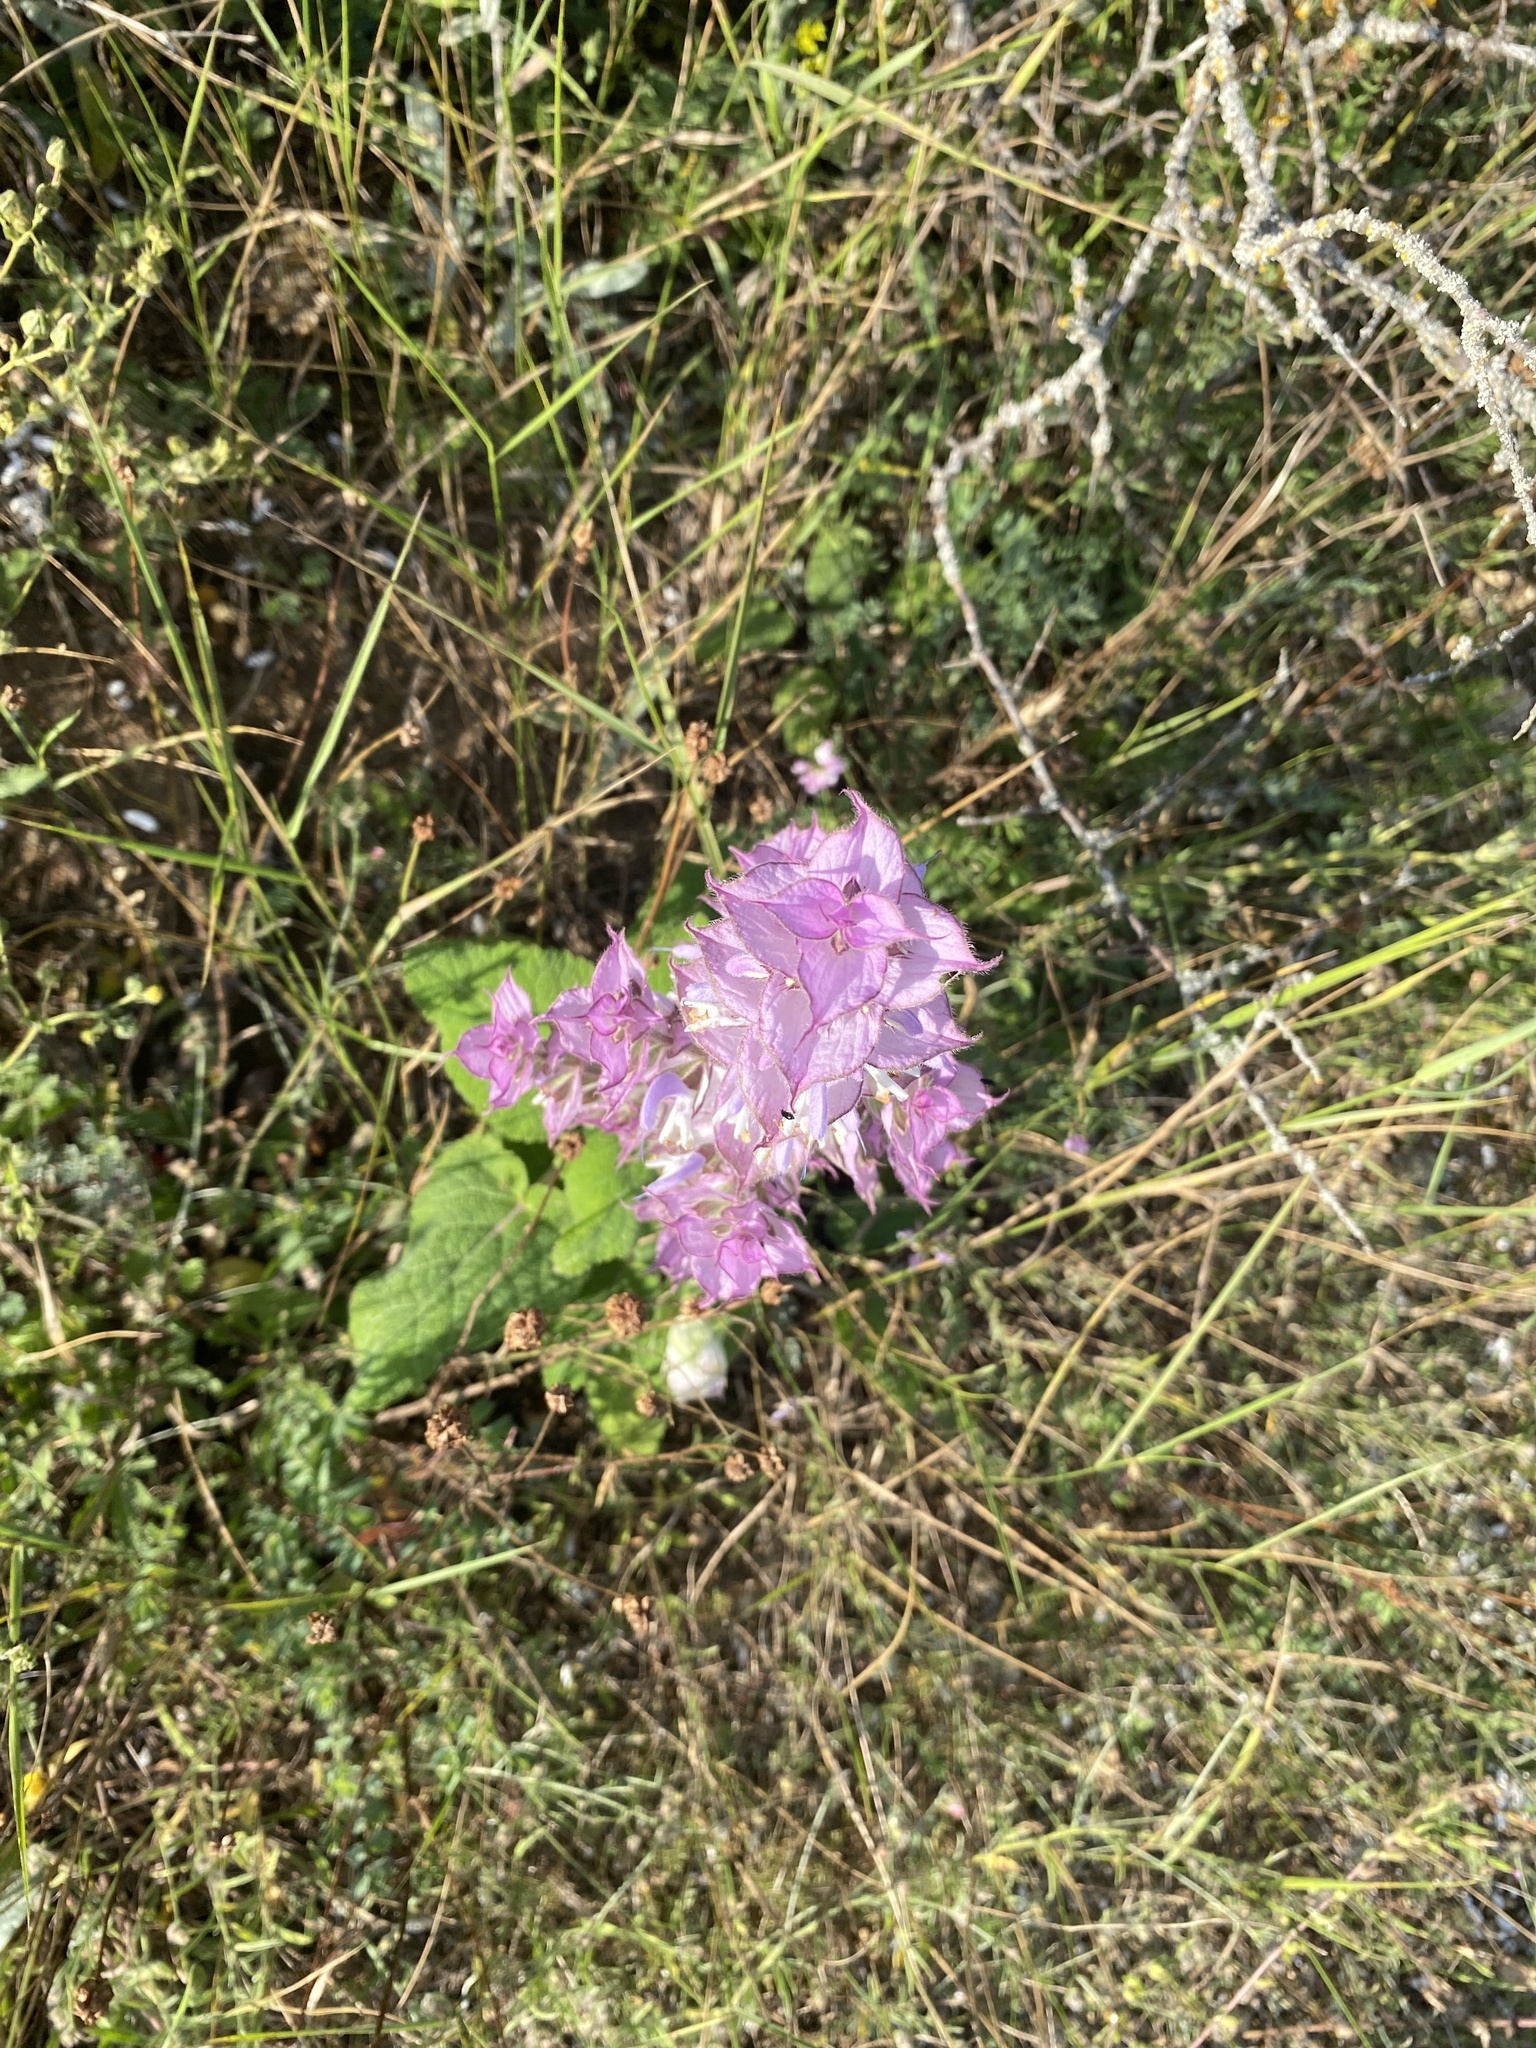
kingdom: Plantae
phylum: Tracheophyta
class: Magnoliopsida
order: Lamiales
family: Lamiaceae
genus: Salvia
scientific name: Salvia sclarea
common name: Clary
